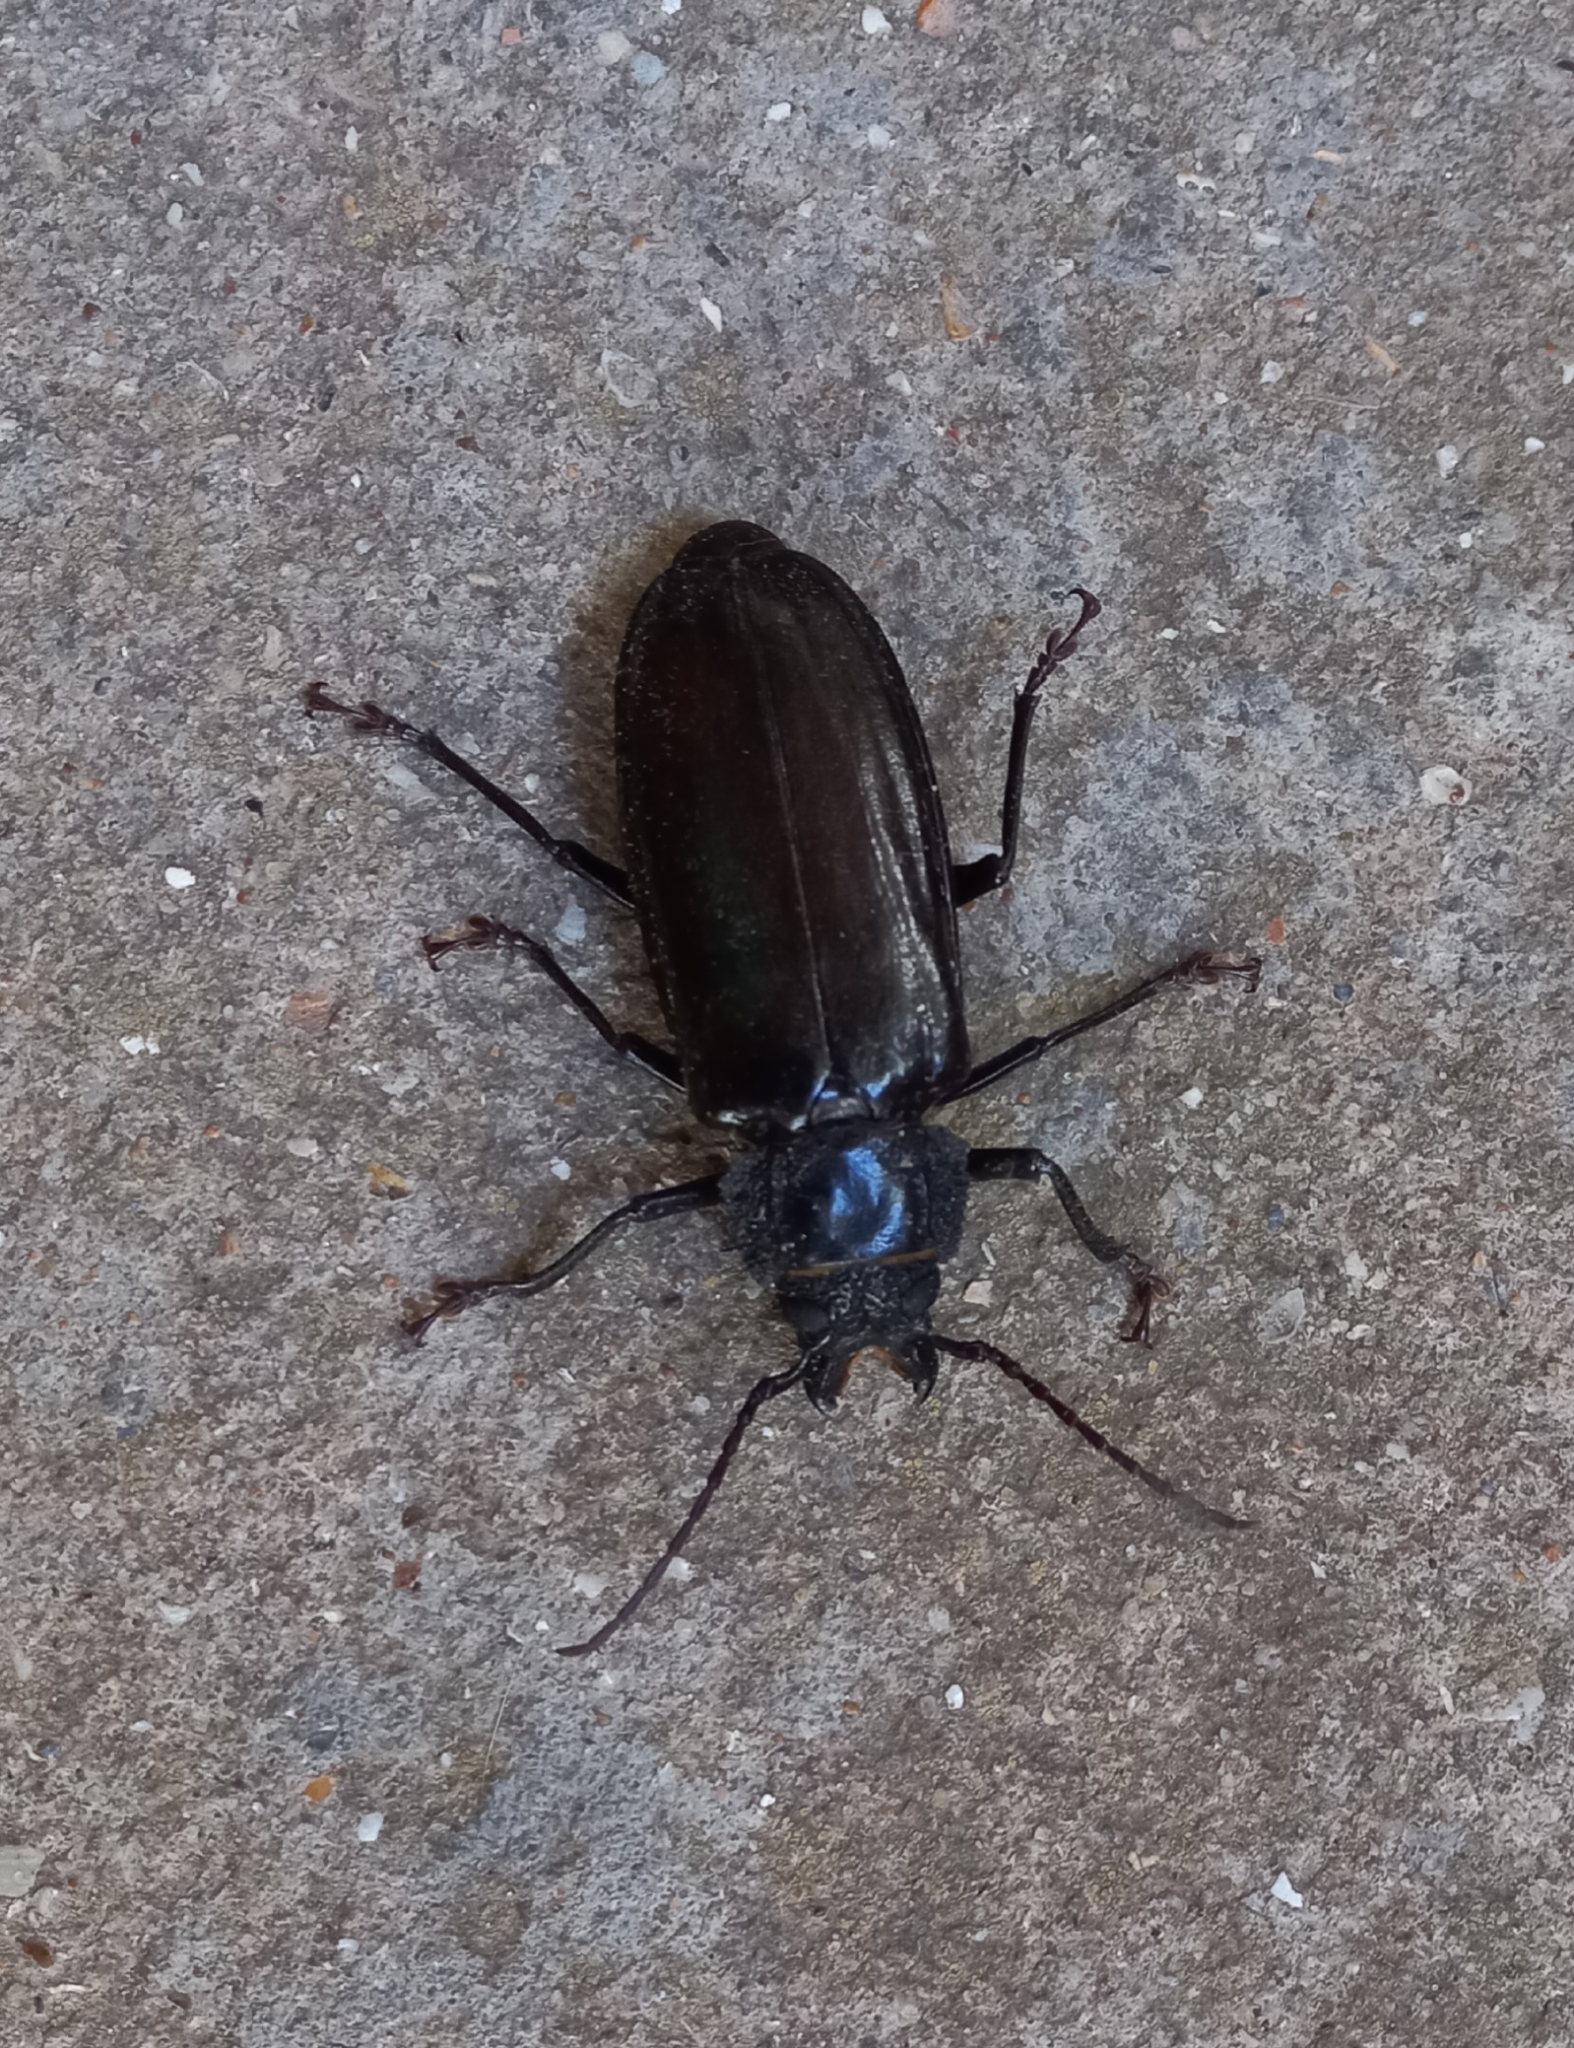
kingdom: Animalia
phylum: Arthropoda
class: Insecta
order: Coleoptera
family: Cerambycidae
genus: Mallodon
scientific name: Mallodon dasystomum
